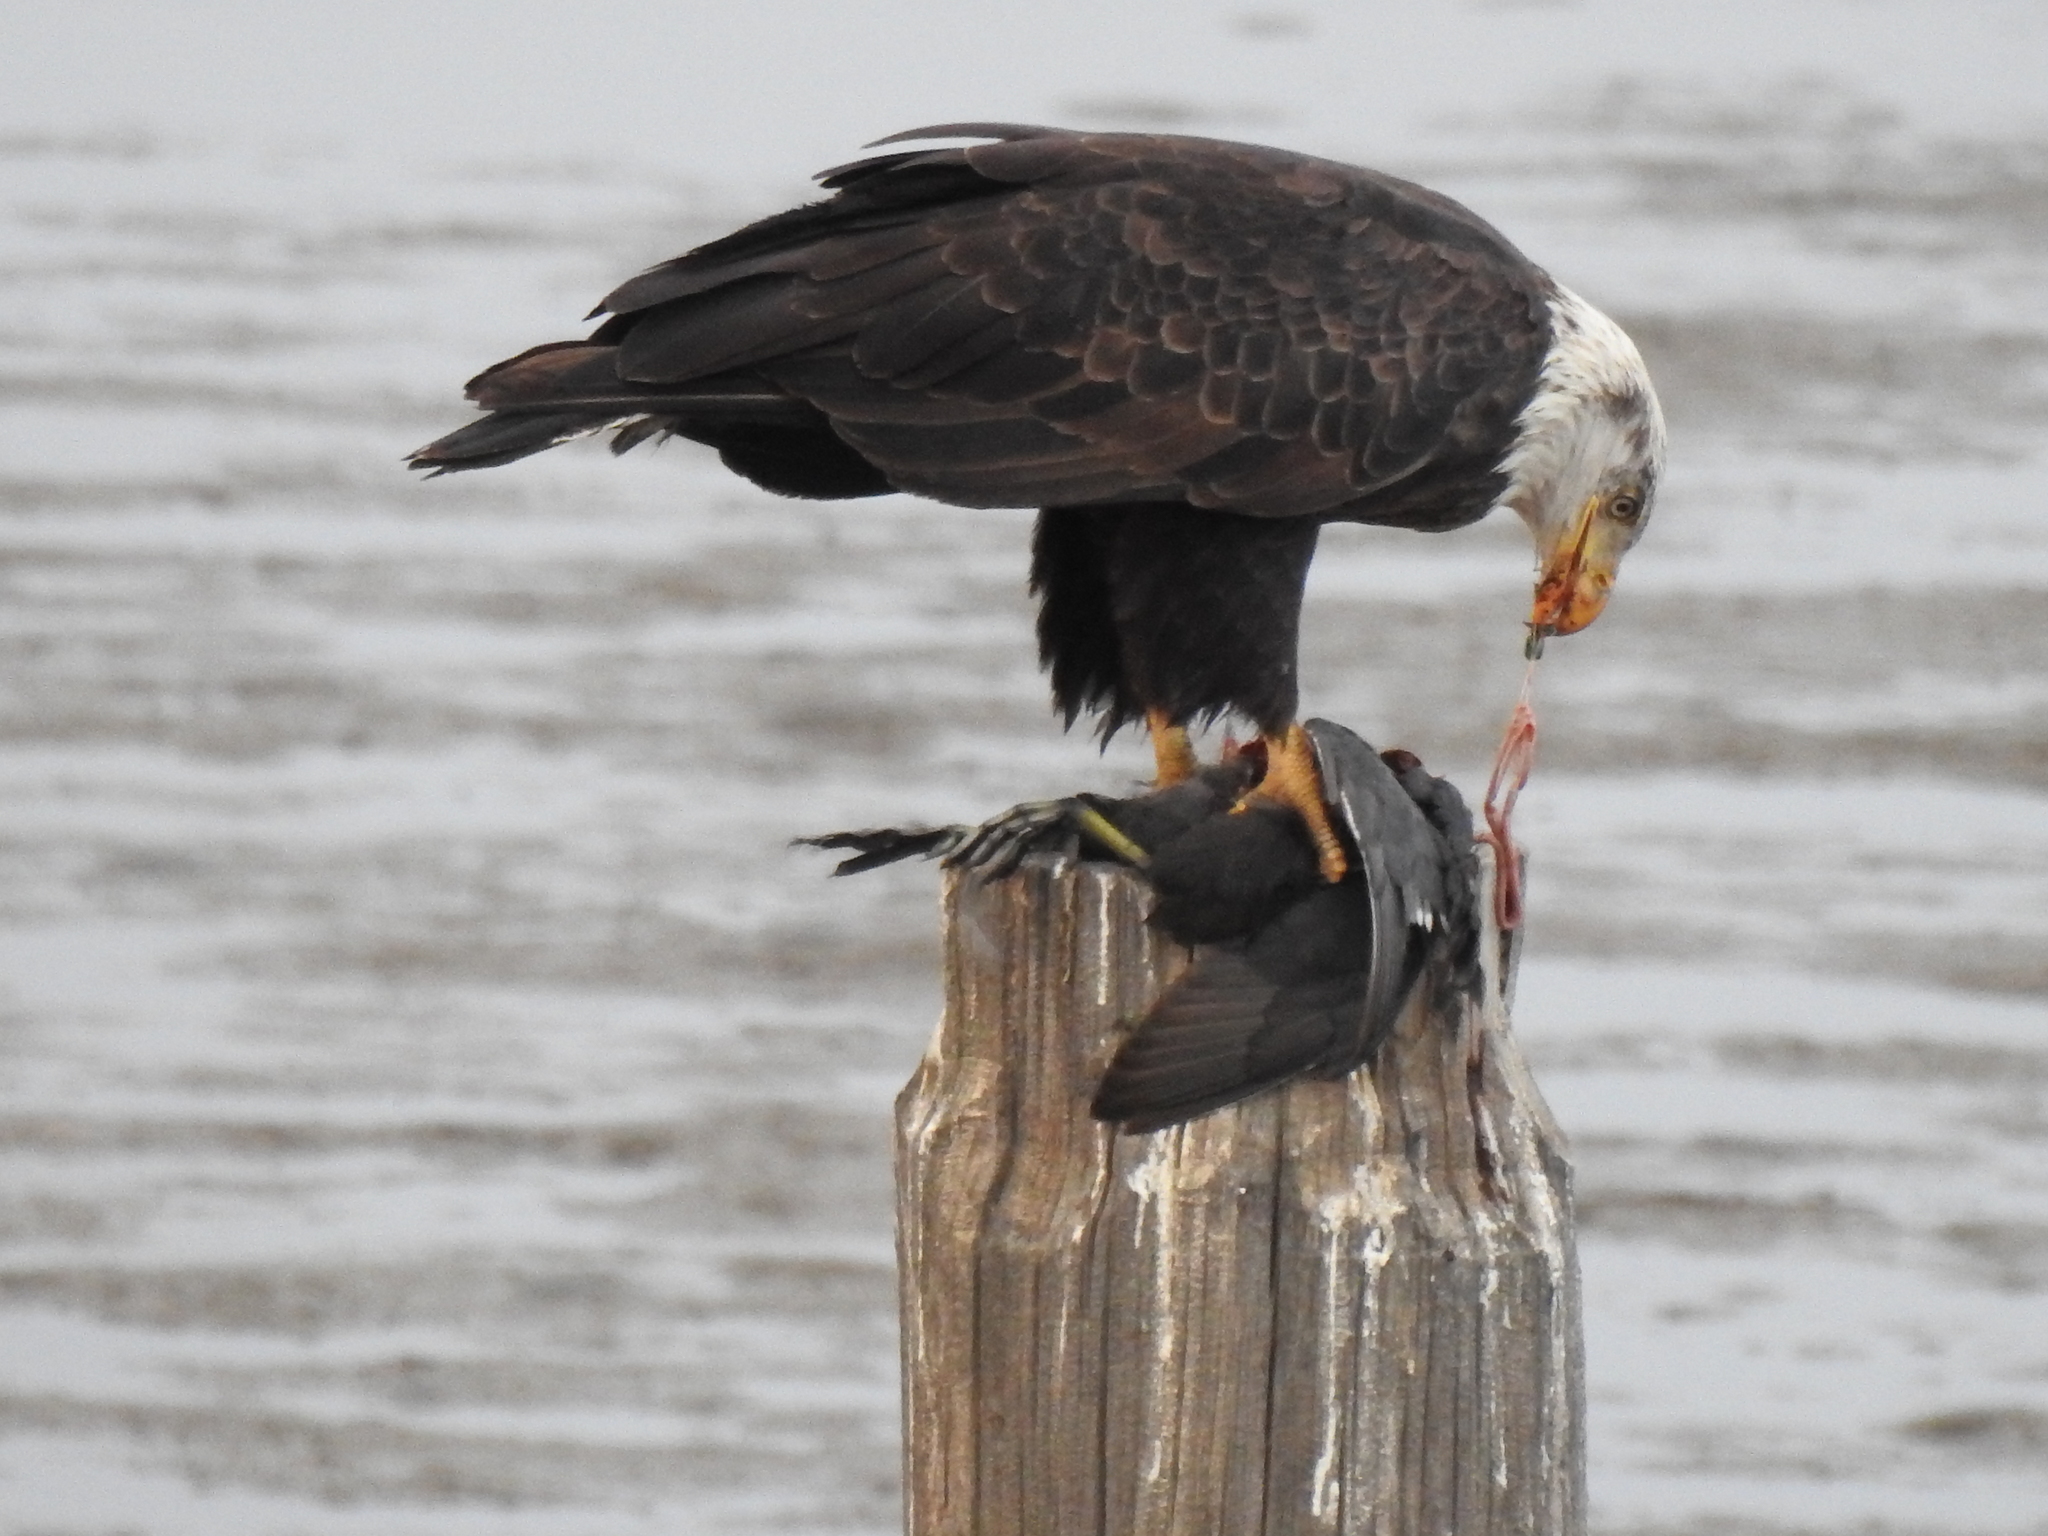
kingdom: Animalia
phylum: Chordata
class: Aves
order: Gruiformes
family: Rallidae
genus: Fulica
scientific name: Fulica americana
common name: American coot
